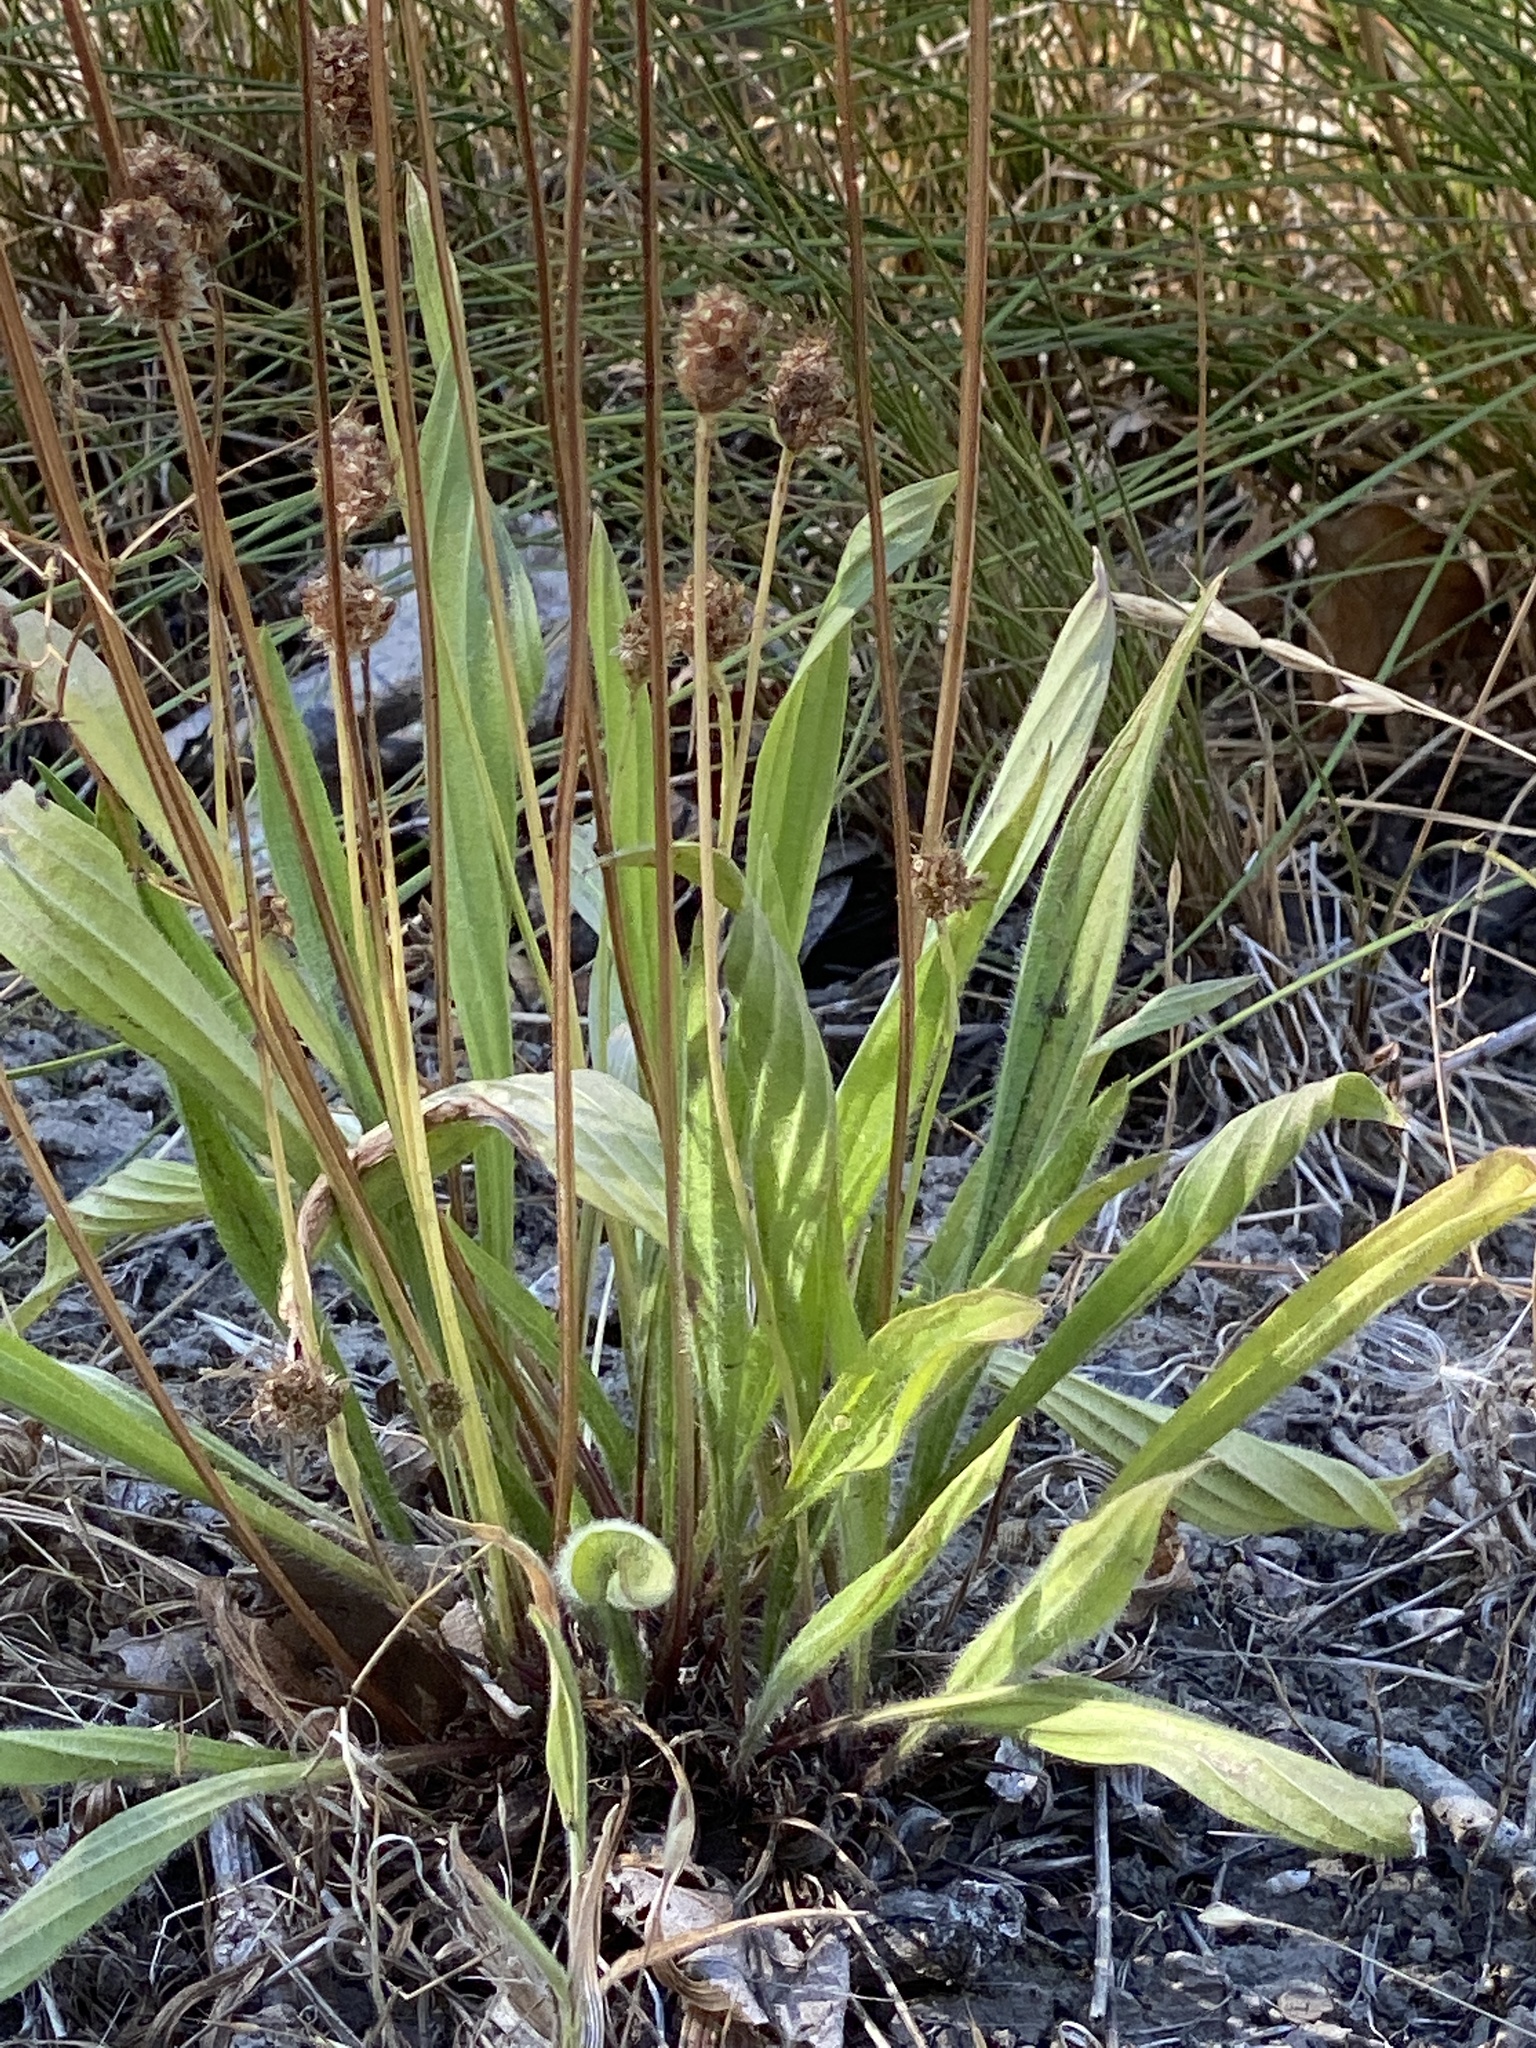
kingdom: Plantae
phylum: Tracheophyta
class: Magnoliopsida
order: Lamiales
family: Plantaginaceae
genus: Plantago
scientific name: Plantago lanceolata
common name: Ribwort plantain
